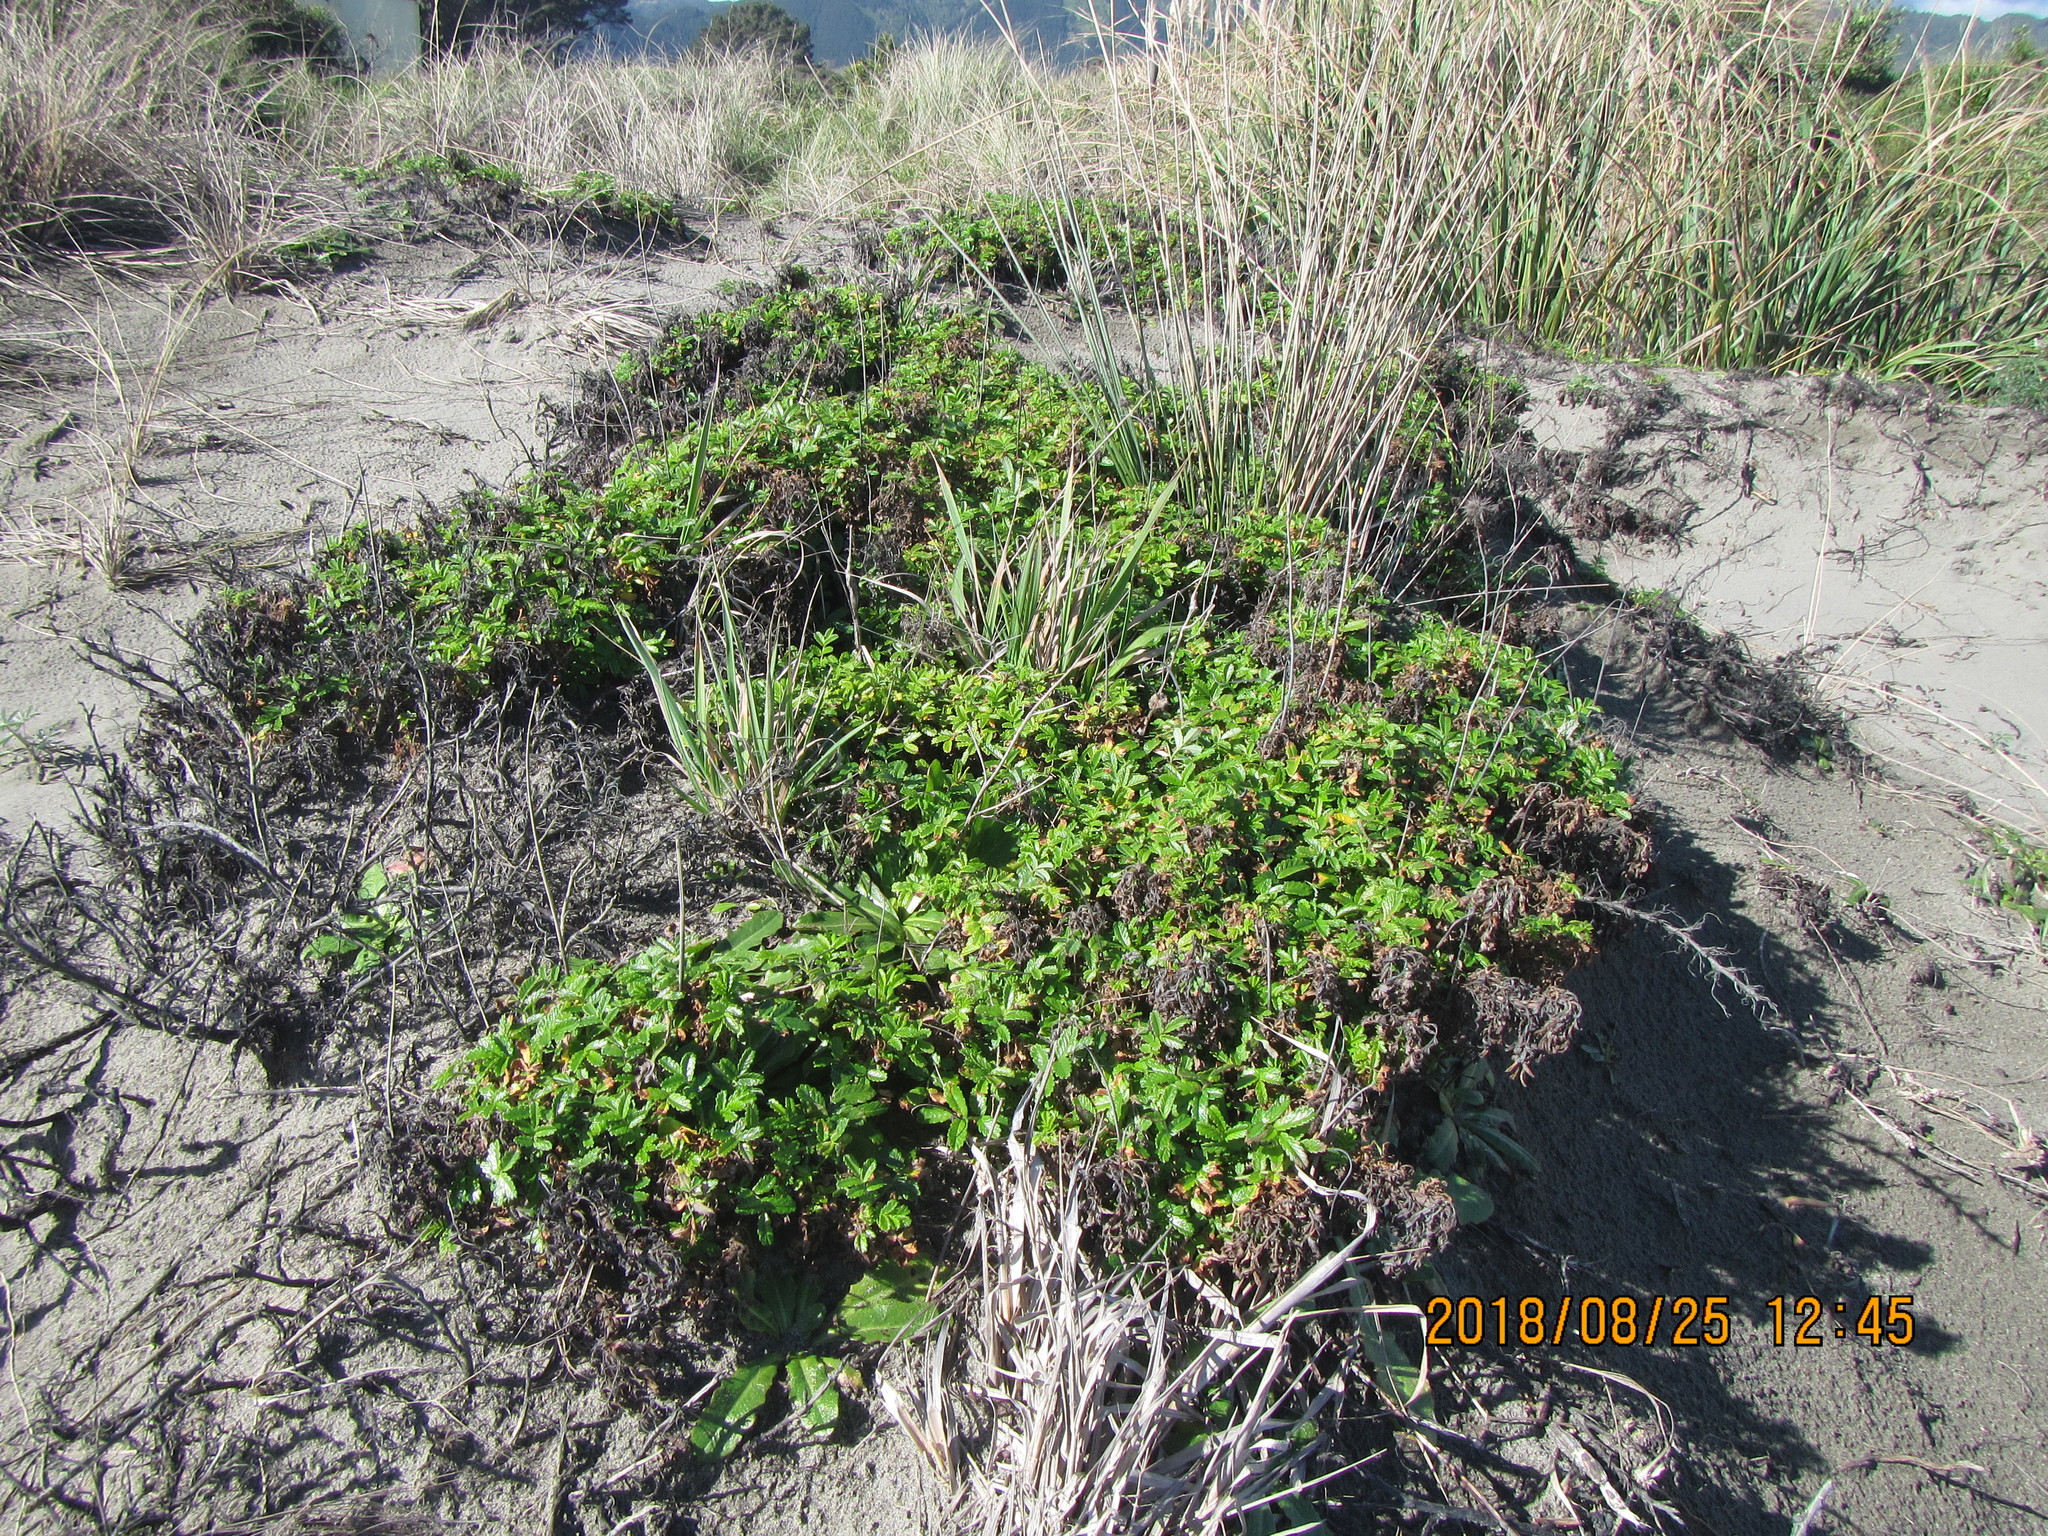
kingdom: Plantae
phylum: Tracheophyta
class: Magnoliopsida
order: Rosales
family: Rosaceae
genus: Acaena
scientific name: Acaena novae-zelandiae
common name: Pirri-pirri-bur
